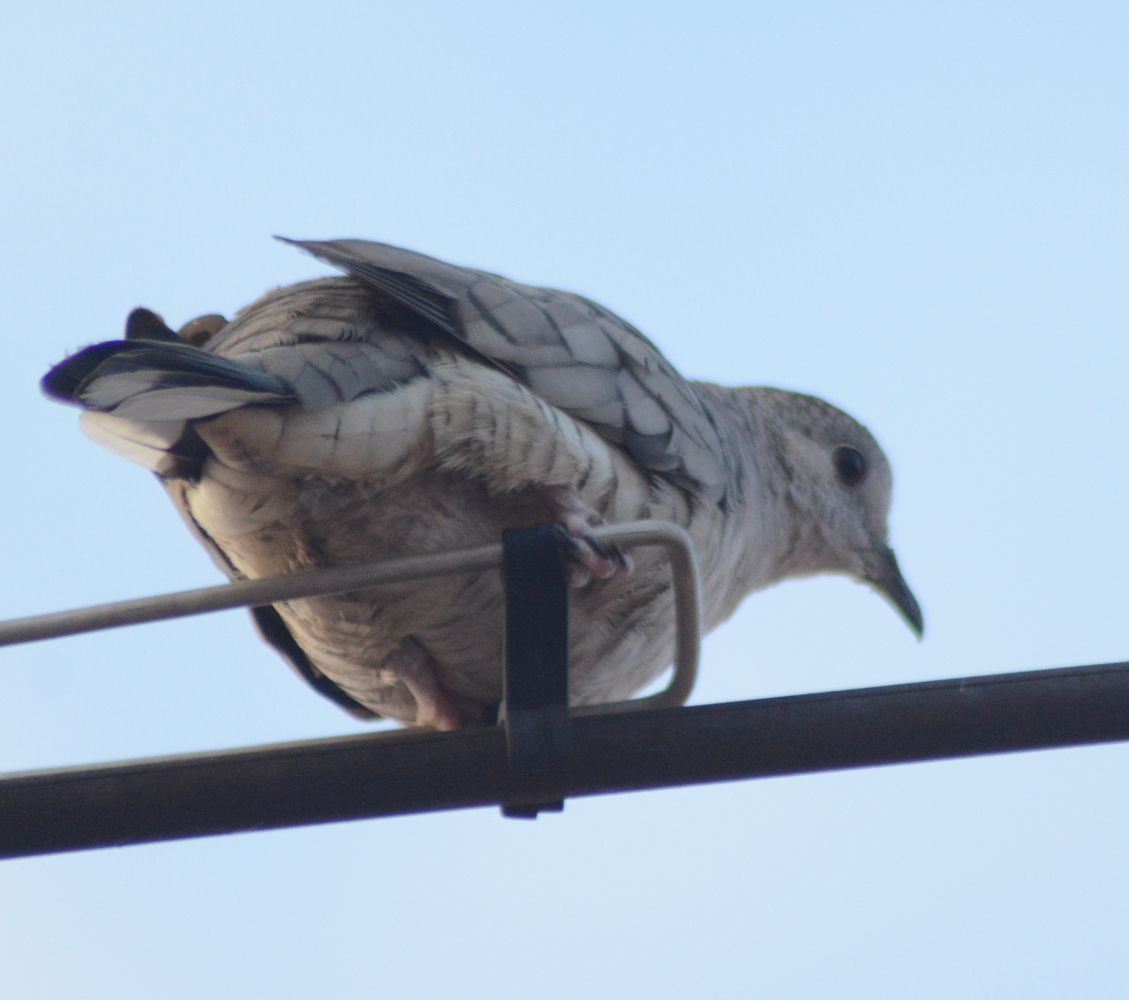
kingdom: Animalia
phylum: Chordata
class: Aves
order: Columbiformes
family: Columbidae
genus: Columbina
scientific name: Columbina inca
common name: Inca dove
